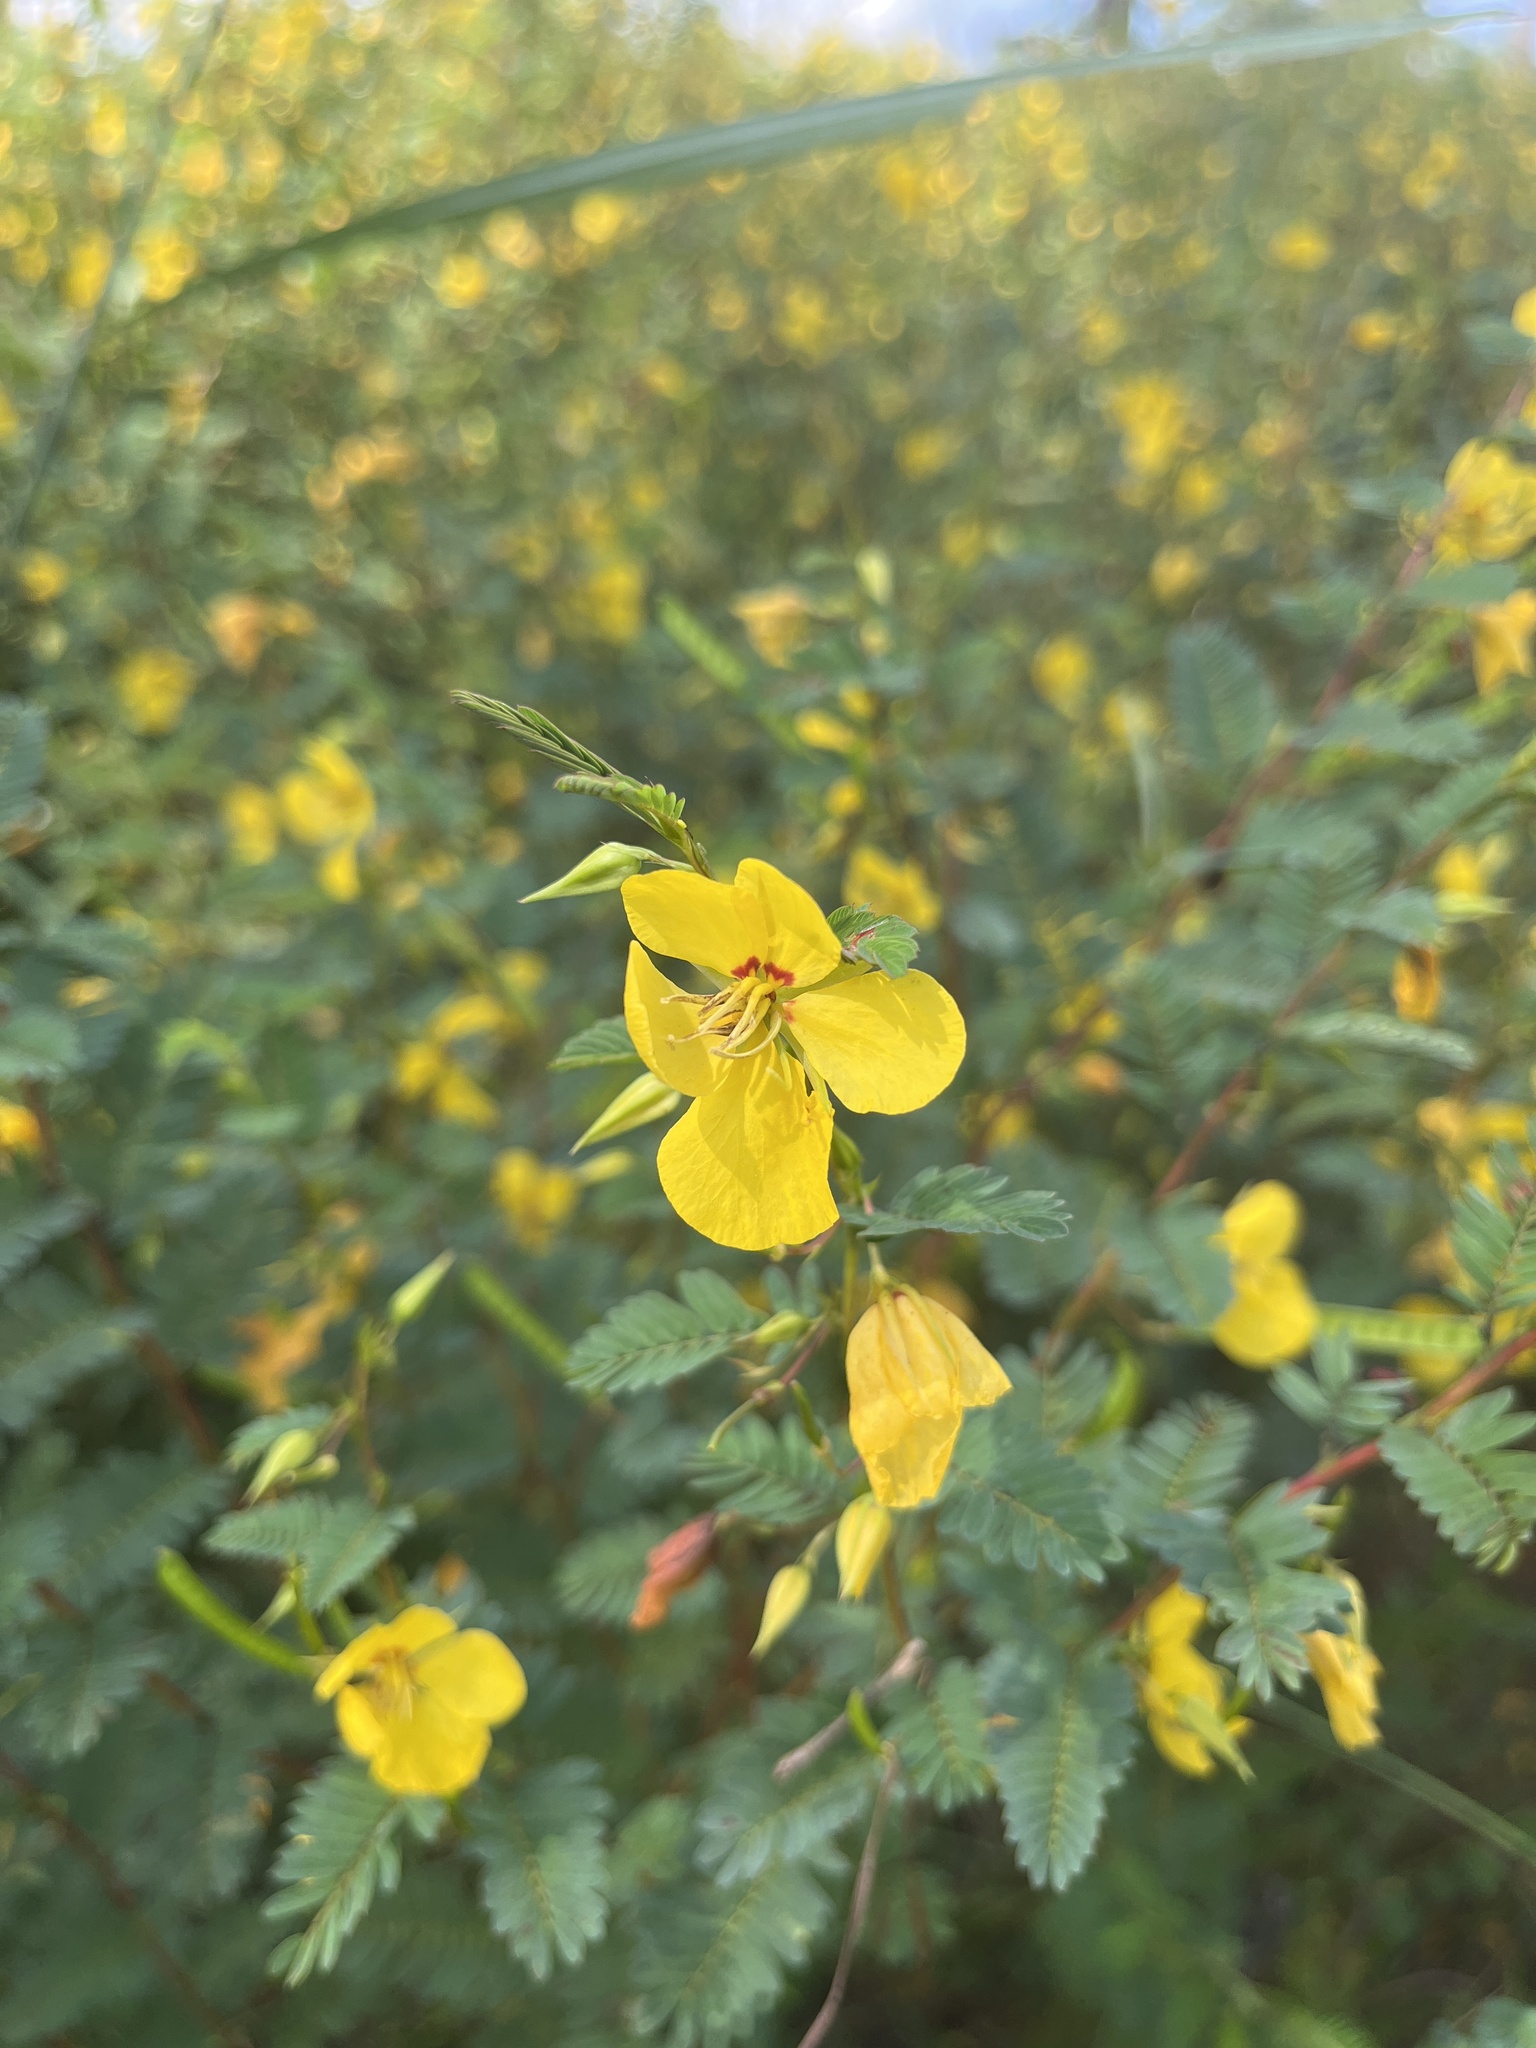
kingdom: Plantae
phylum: Tracheophyta
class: Magnoliopsida
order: Fabales
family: Fabaceae
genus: Chamaecrista
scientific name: Chamaecrista fasciculata
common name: Golden cassia
